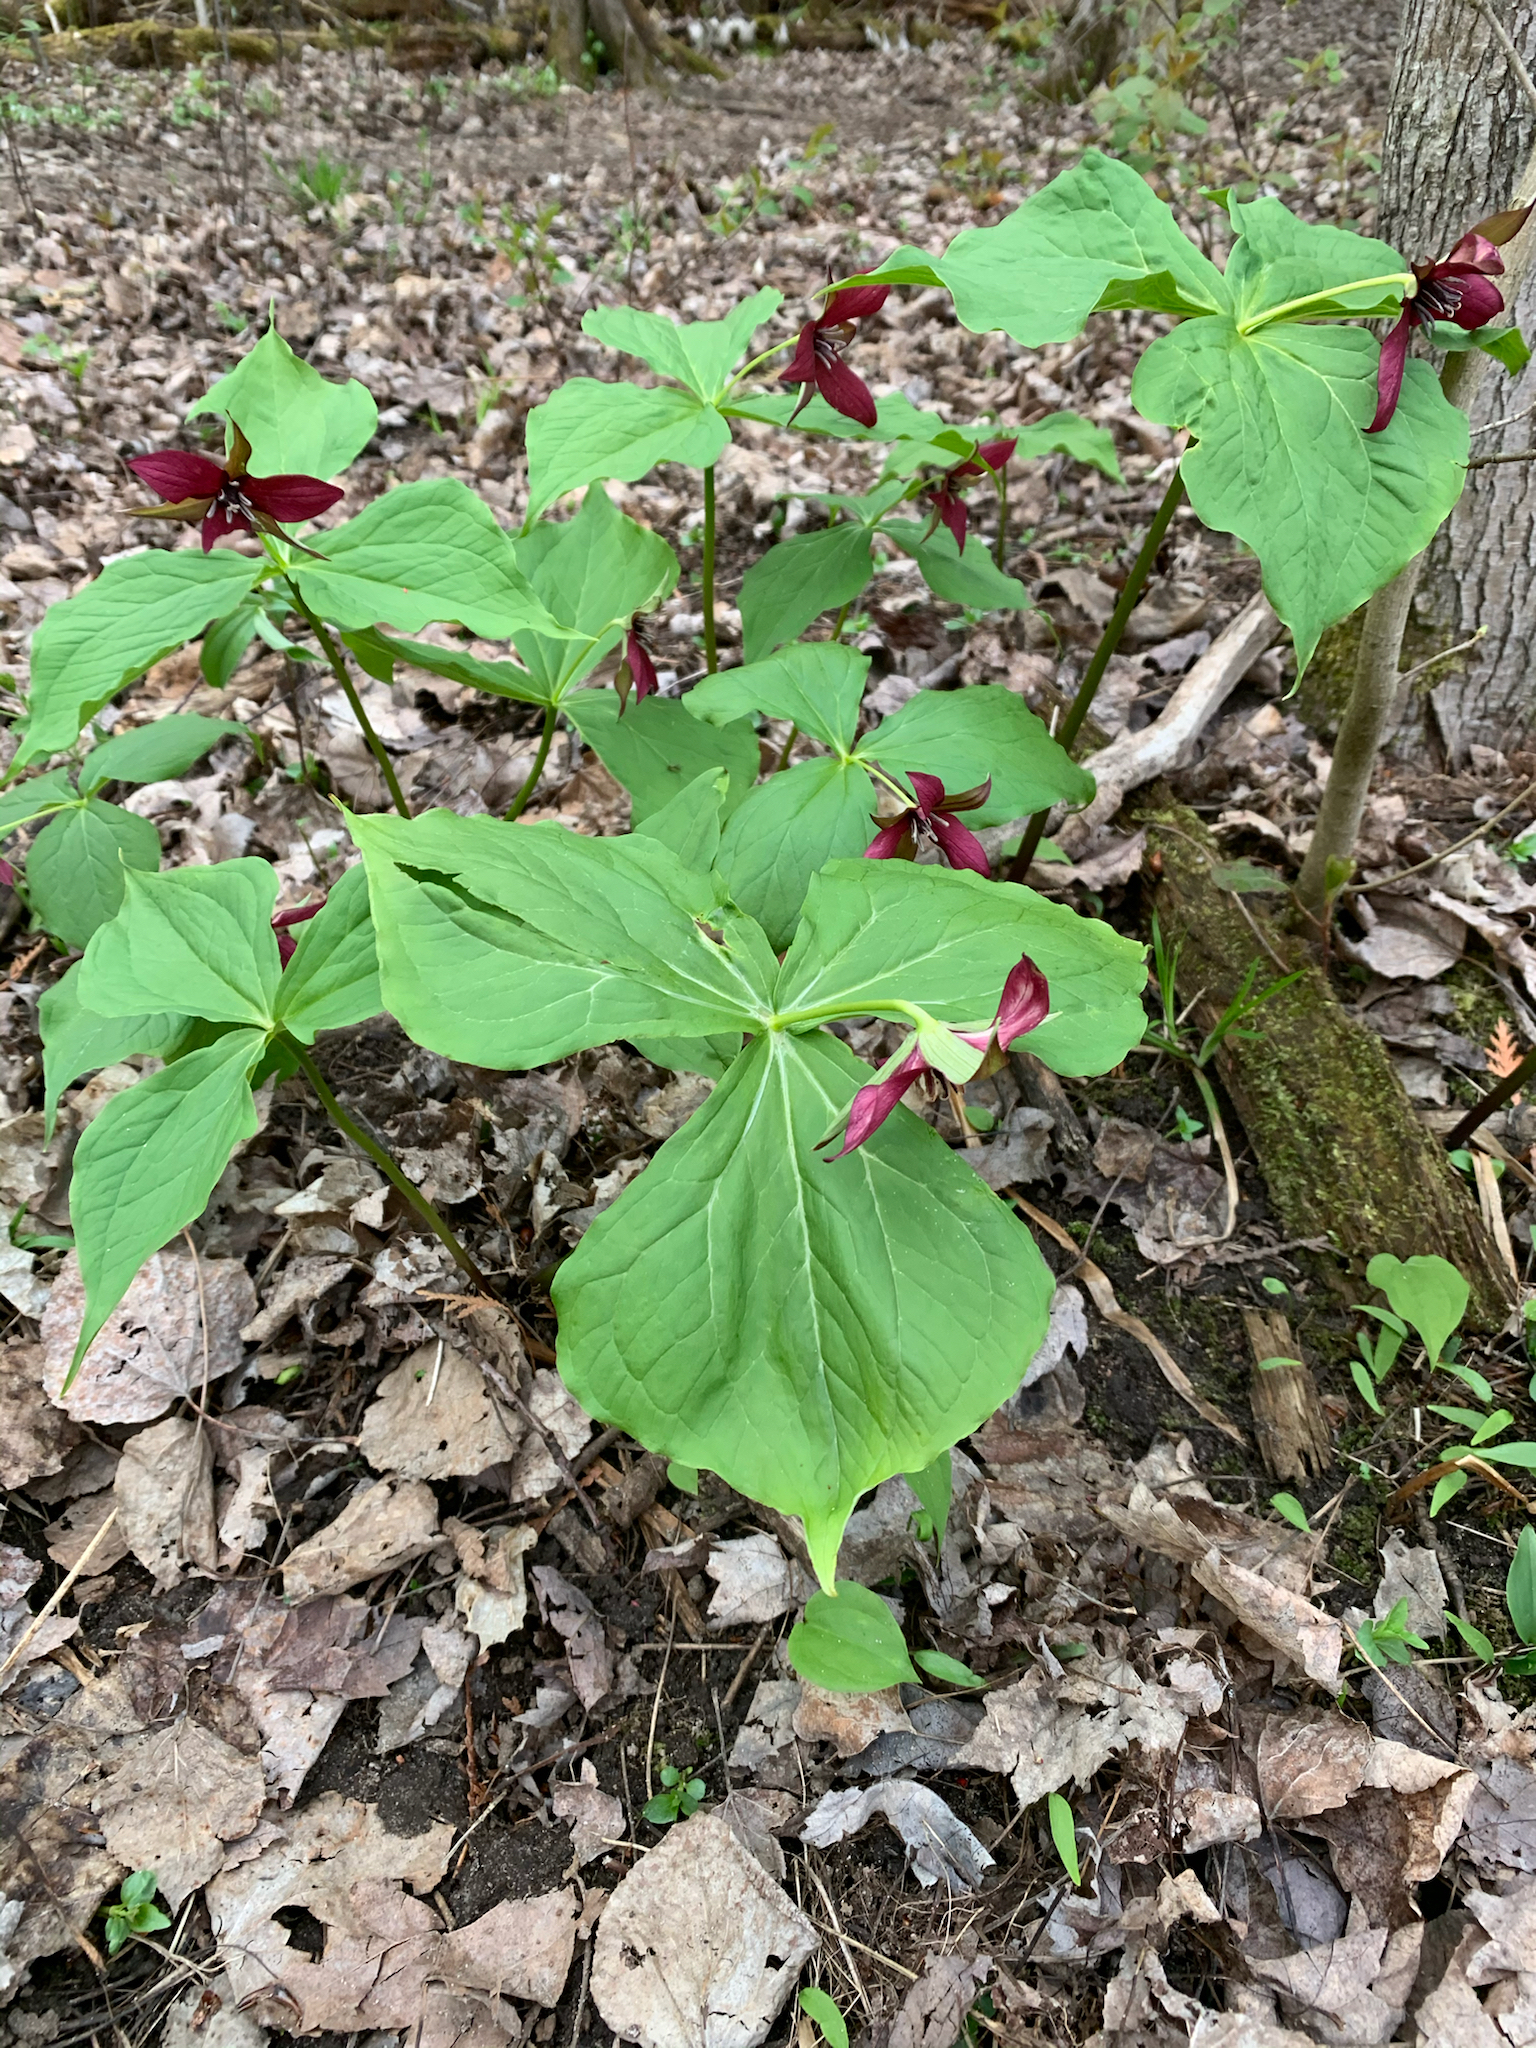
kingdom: Plantae
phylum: Tracheophyta
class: Liliopsida
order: Liliales
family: Melanthiaceae
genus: Trillium
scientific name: Trillium erectum
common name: Purple trillium
